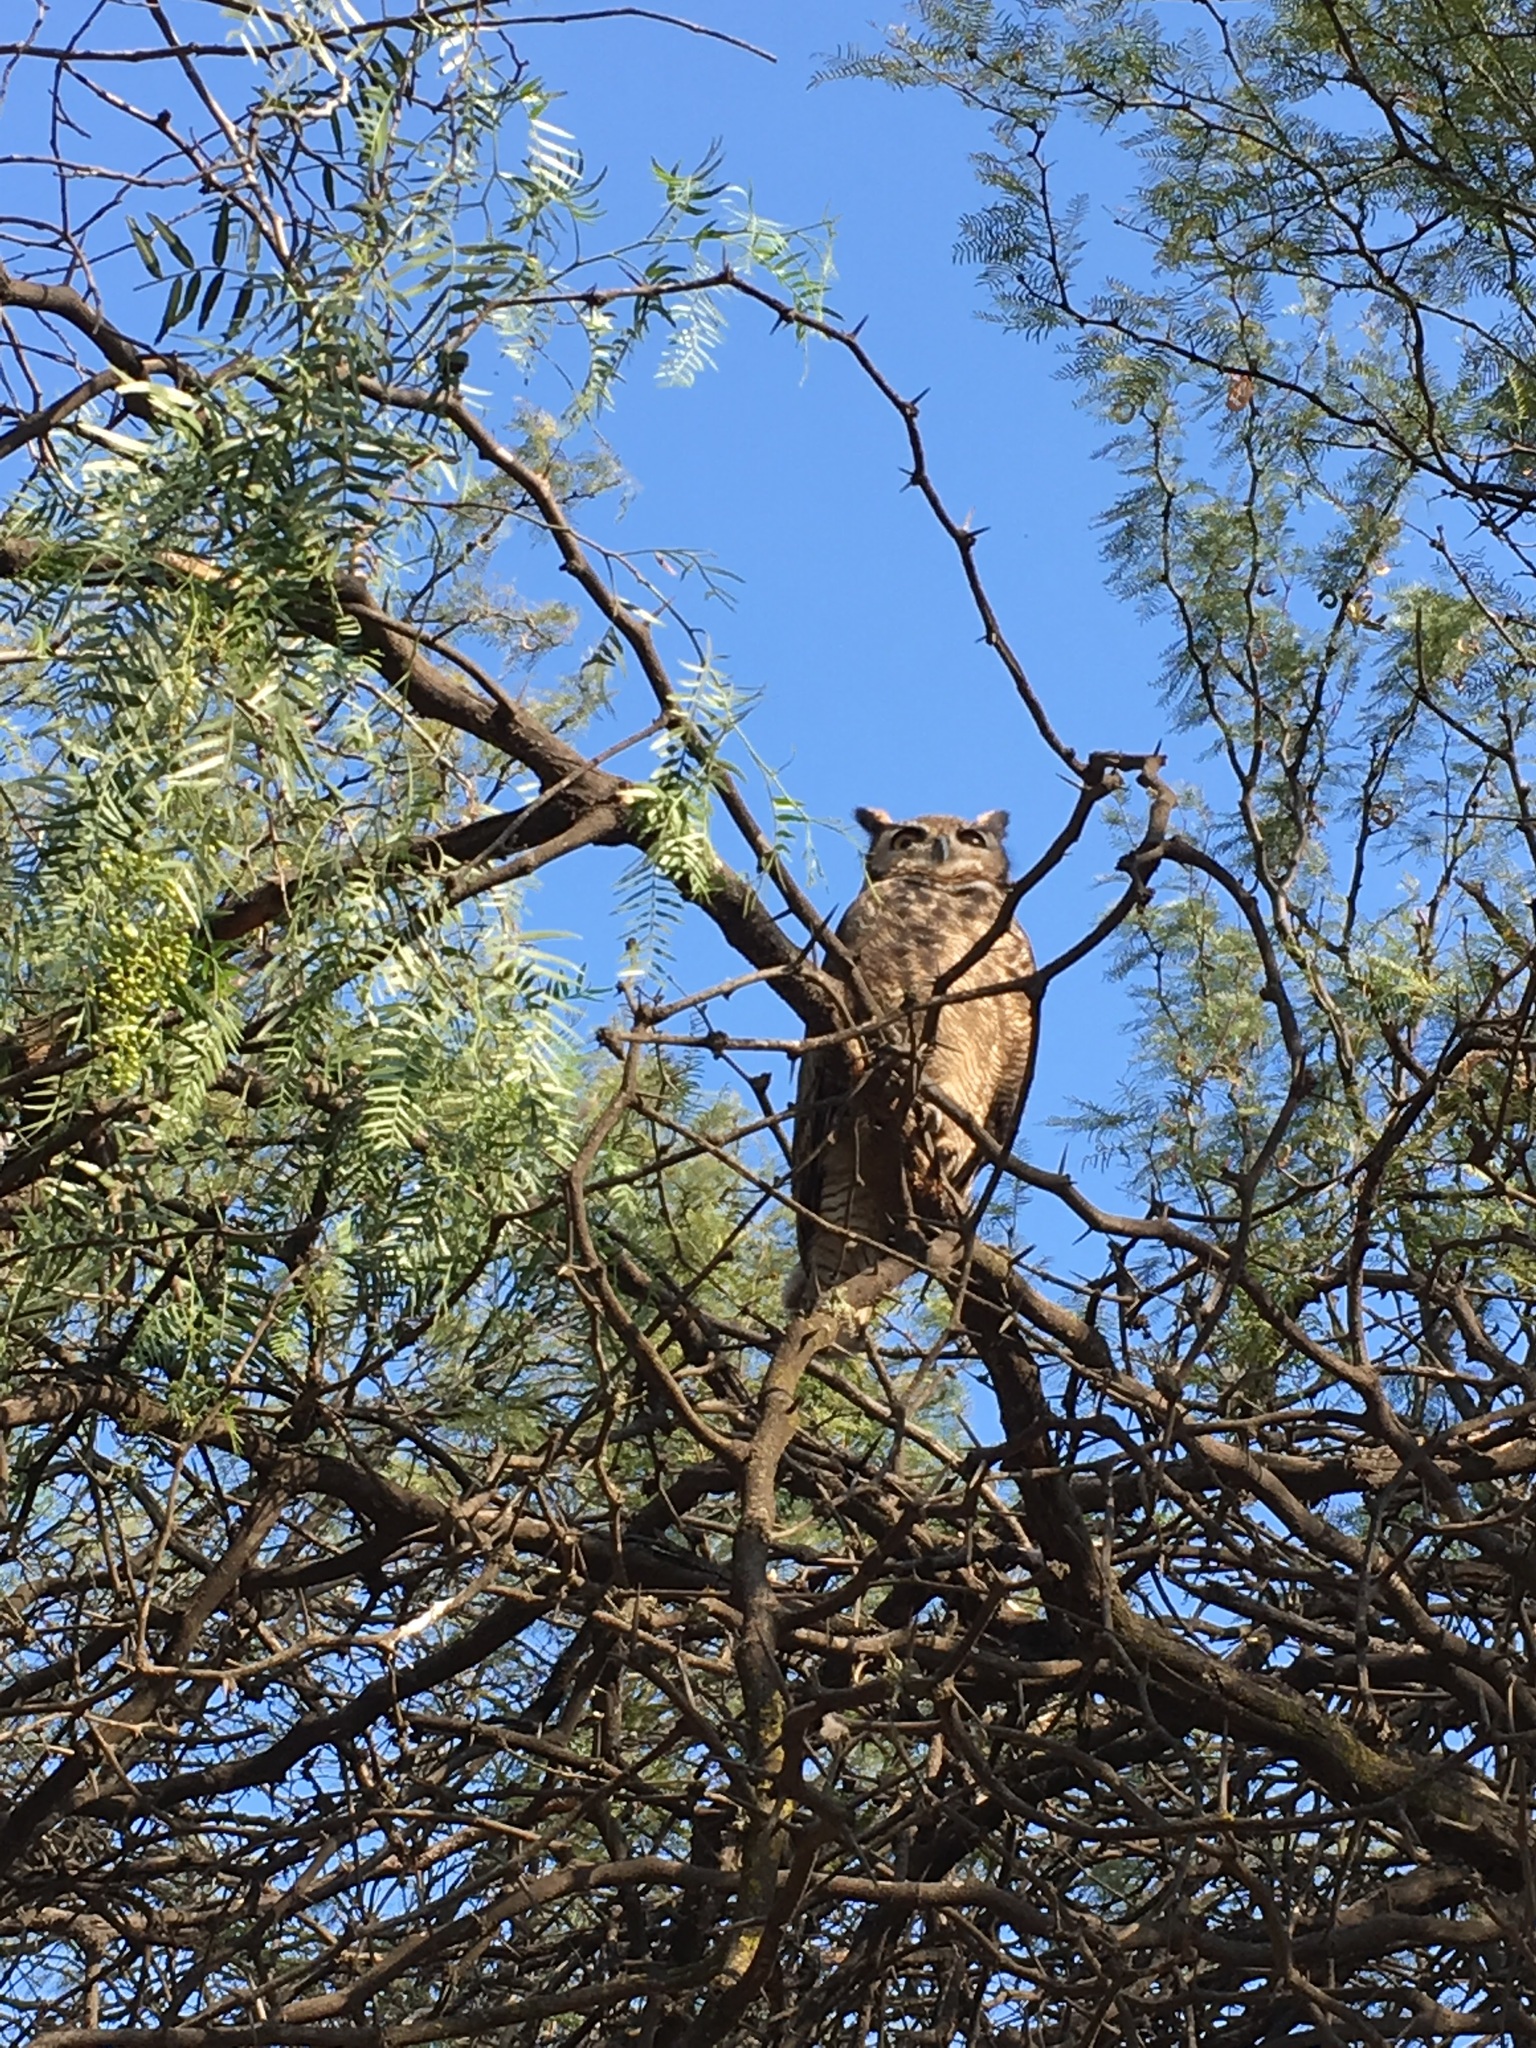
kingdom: Animalia
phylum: Chordata
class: Aves
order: Strigiformes
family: Strigidae
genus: Bubo
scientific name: Bubo magellanicus
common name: Lesser horned owl
